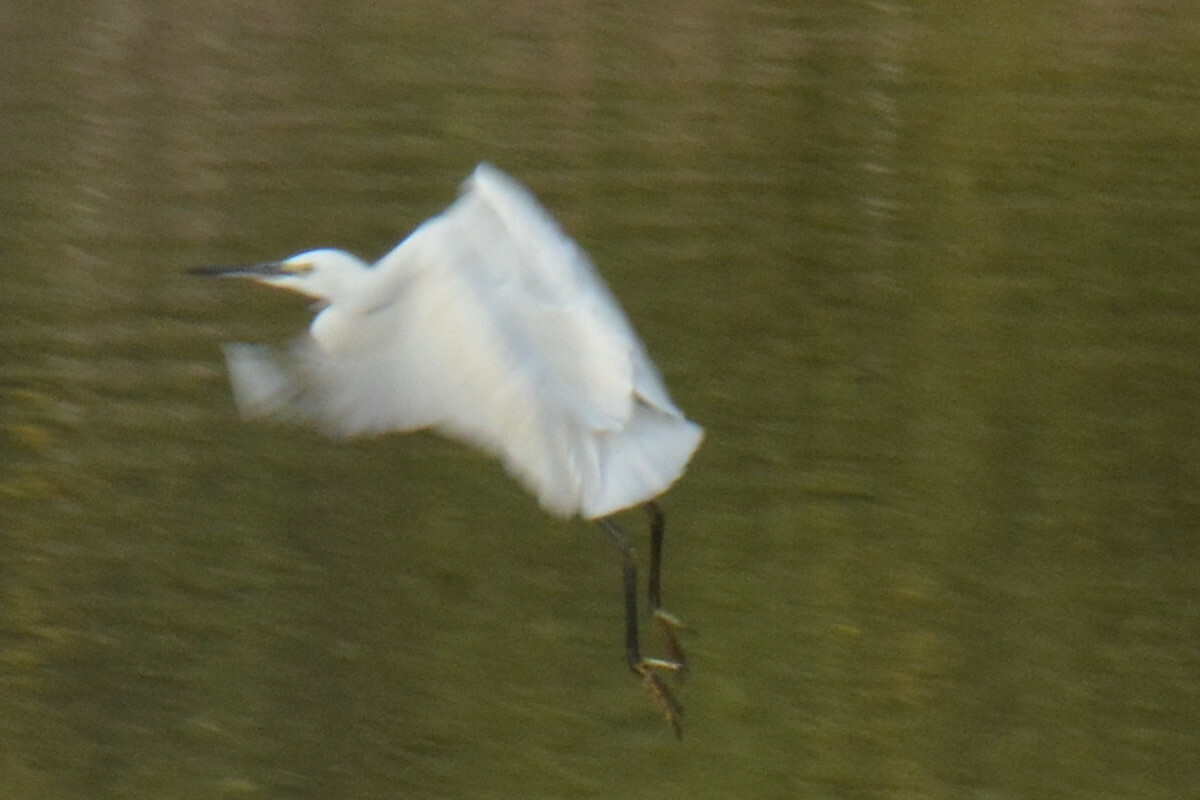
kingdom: Animalia
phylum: Chordata
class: Aves
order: Pelecaniformes
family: Ardeidae
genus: Egretta
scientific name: Egretta garzetta
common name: Little egret
